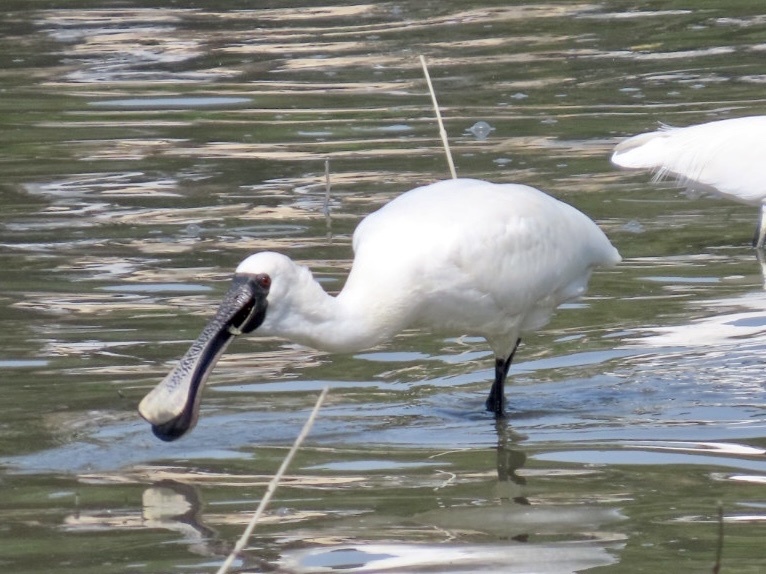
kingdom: Animalia
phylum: Chordata
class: Aves
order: Pelecaniformes
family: Threskiornithidae
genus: Platalea
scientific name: Platalea minor
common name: Black-faced spoonbill
